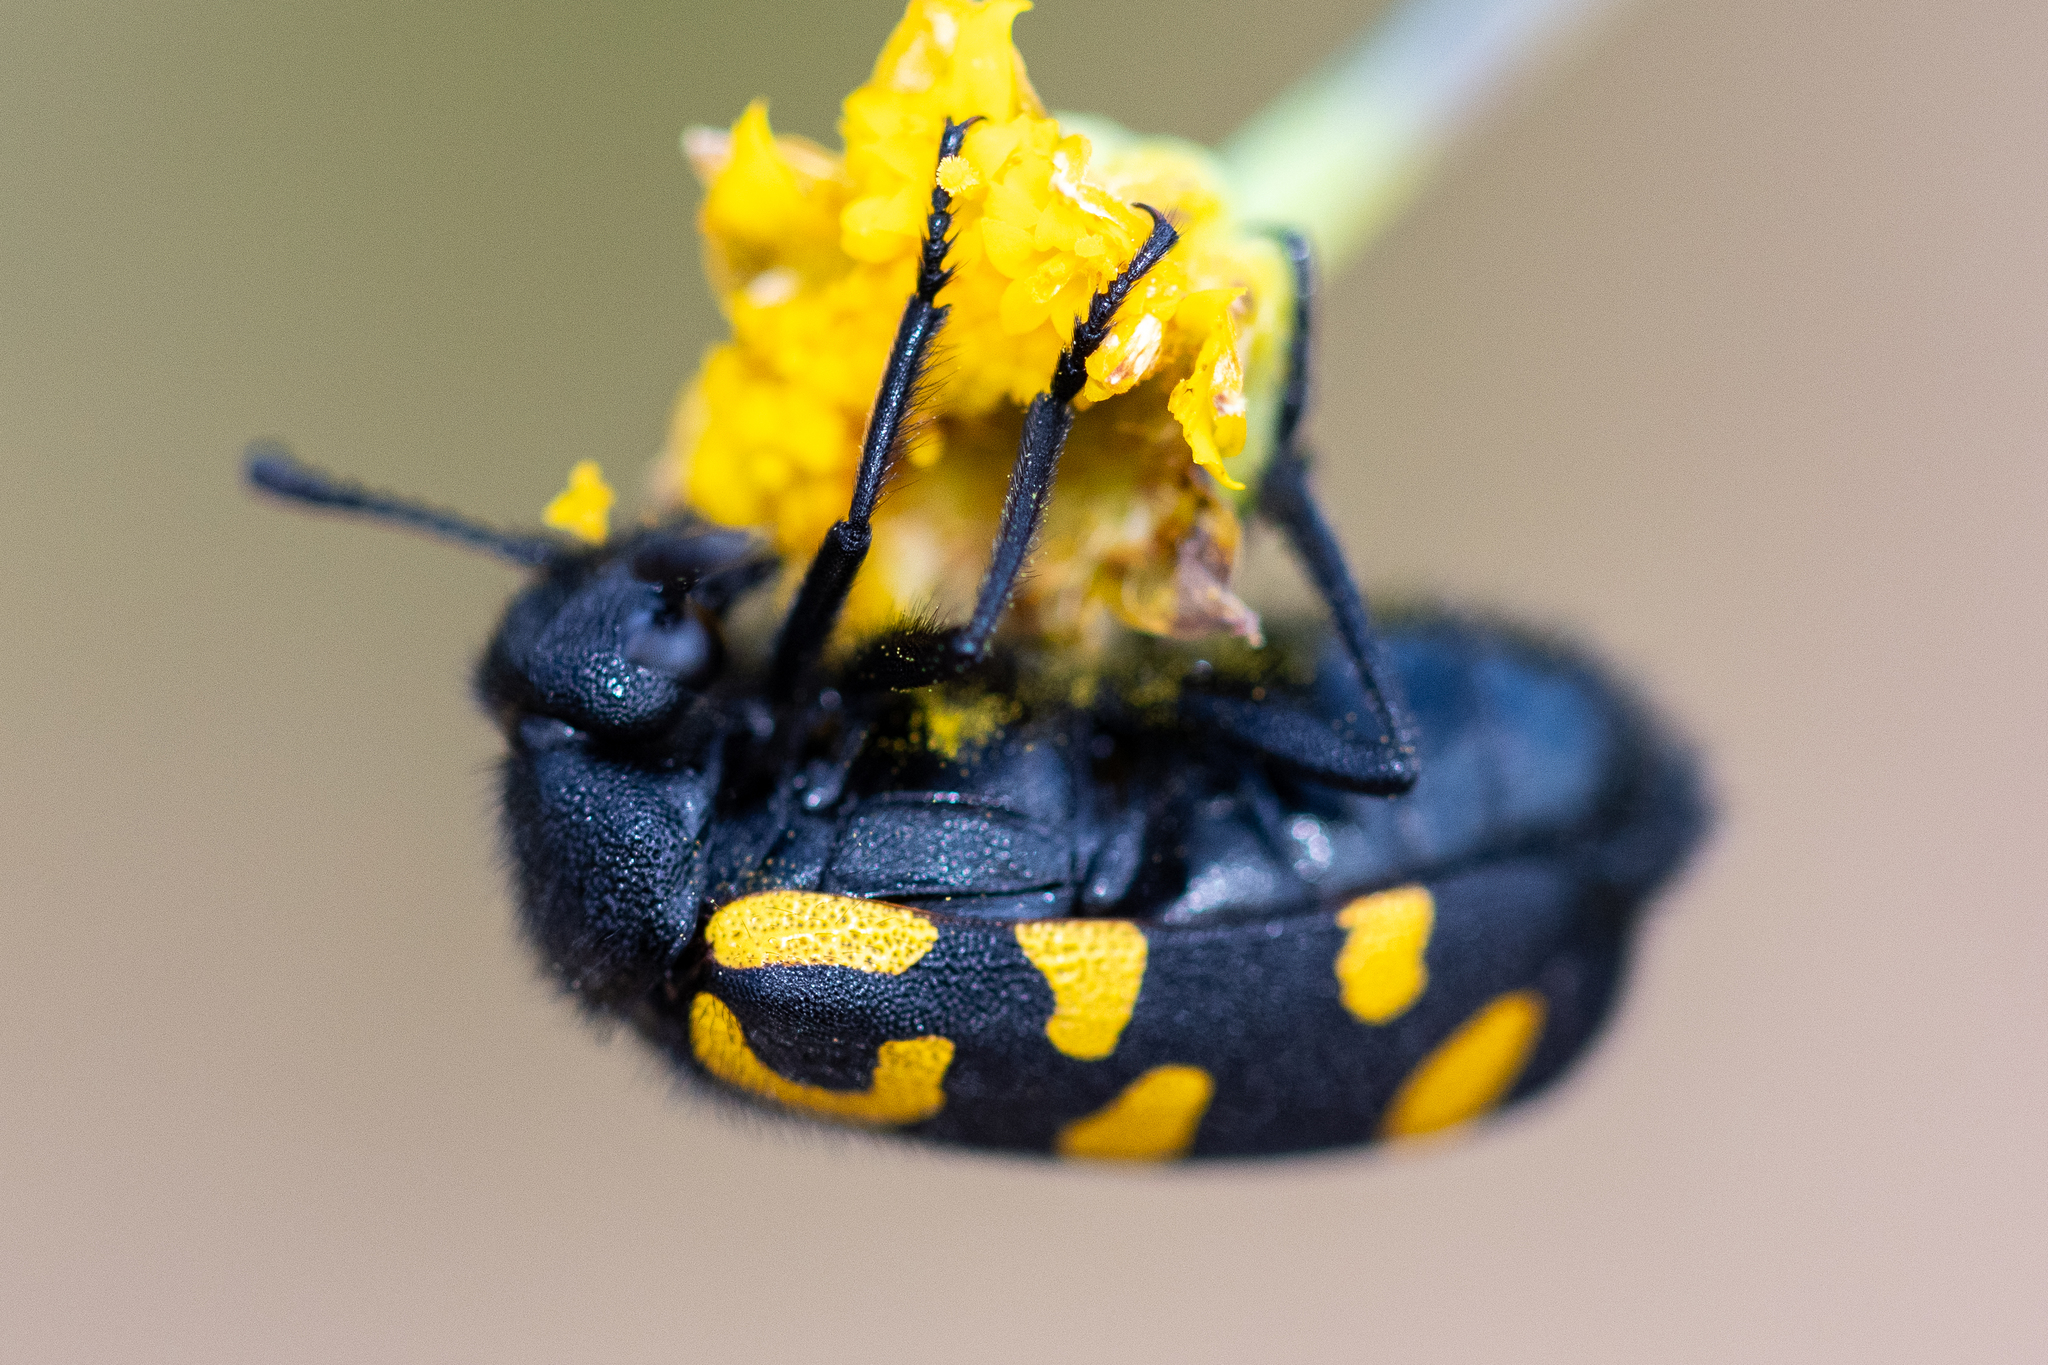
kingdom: Animalia
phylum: Arthropoda
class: Insecta
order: Coleoptera
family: Meloidae
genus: Ceroctis
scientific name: Ceroctis capensis
